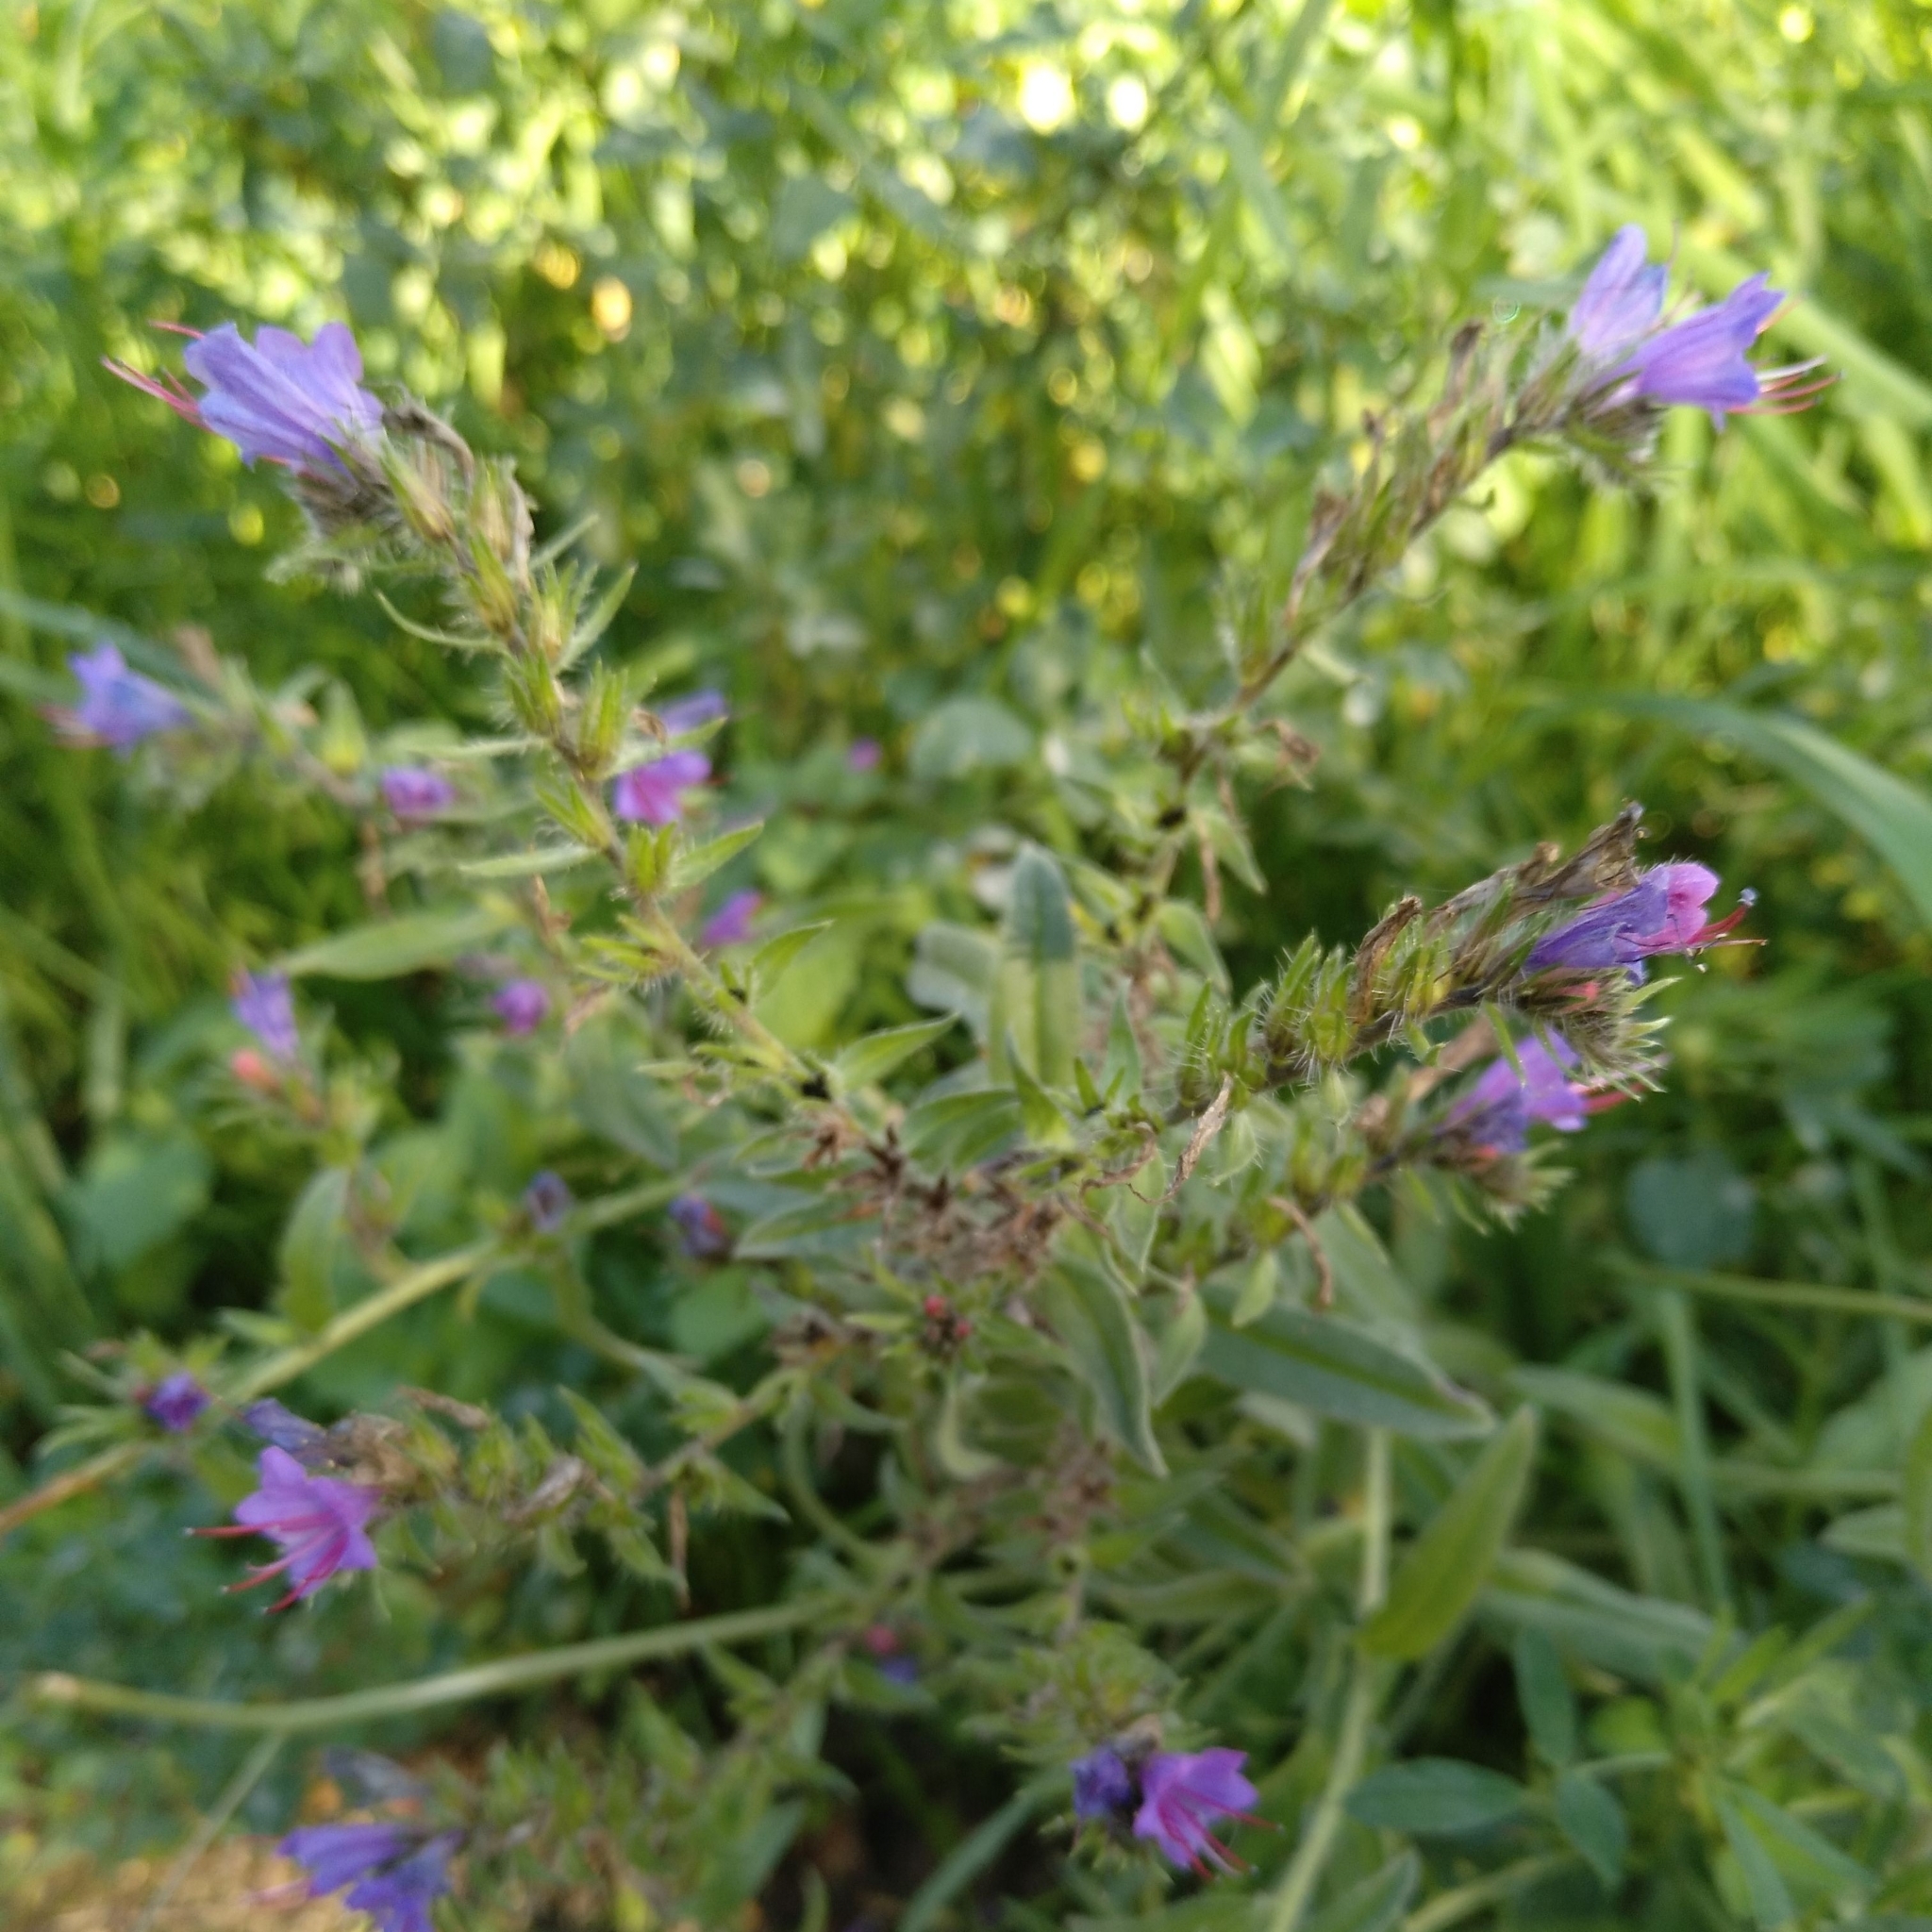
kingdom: Plantae
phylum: Tracheophyta
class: Magnoliopsida
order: Boraginales
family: Boraginaceae
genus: Echium
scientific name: Echium vulgare
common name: Common viper's bugloss
